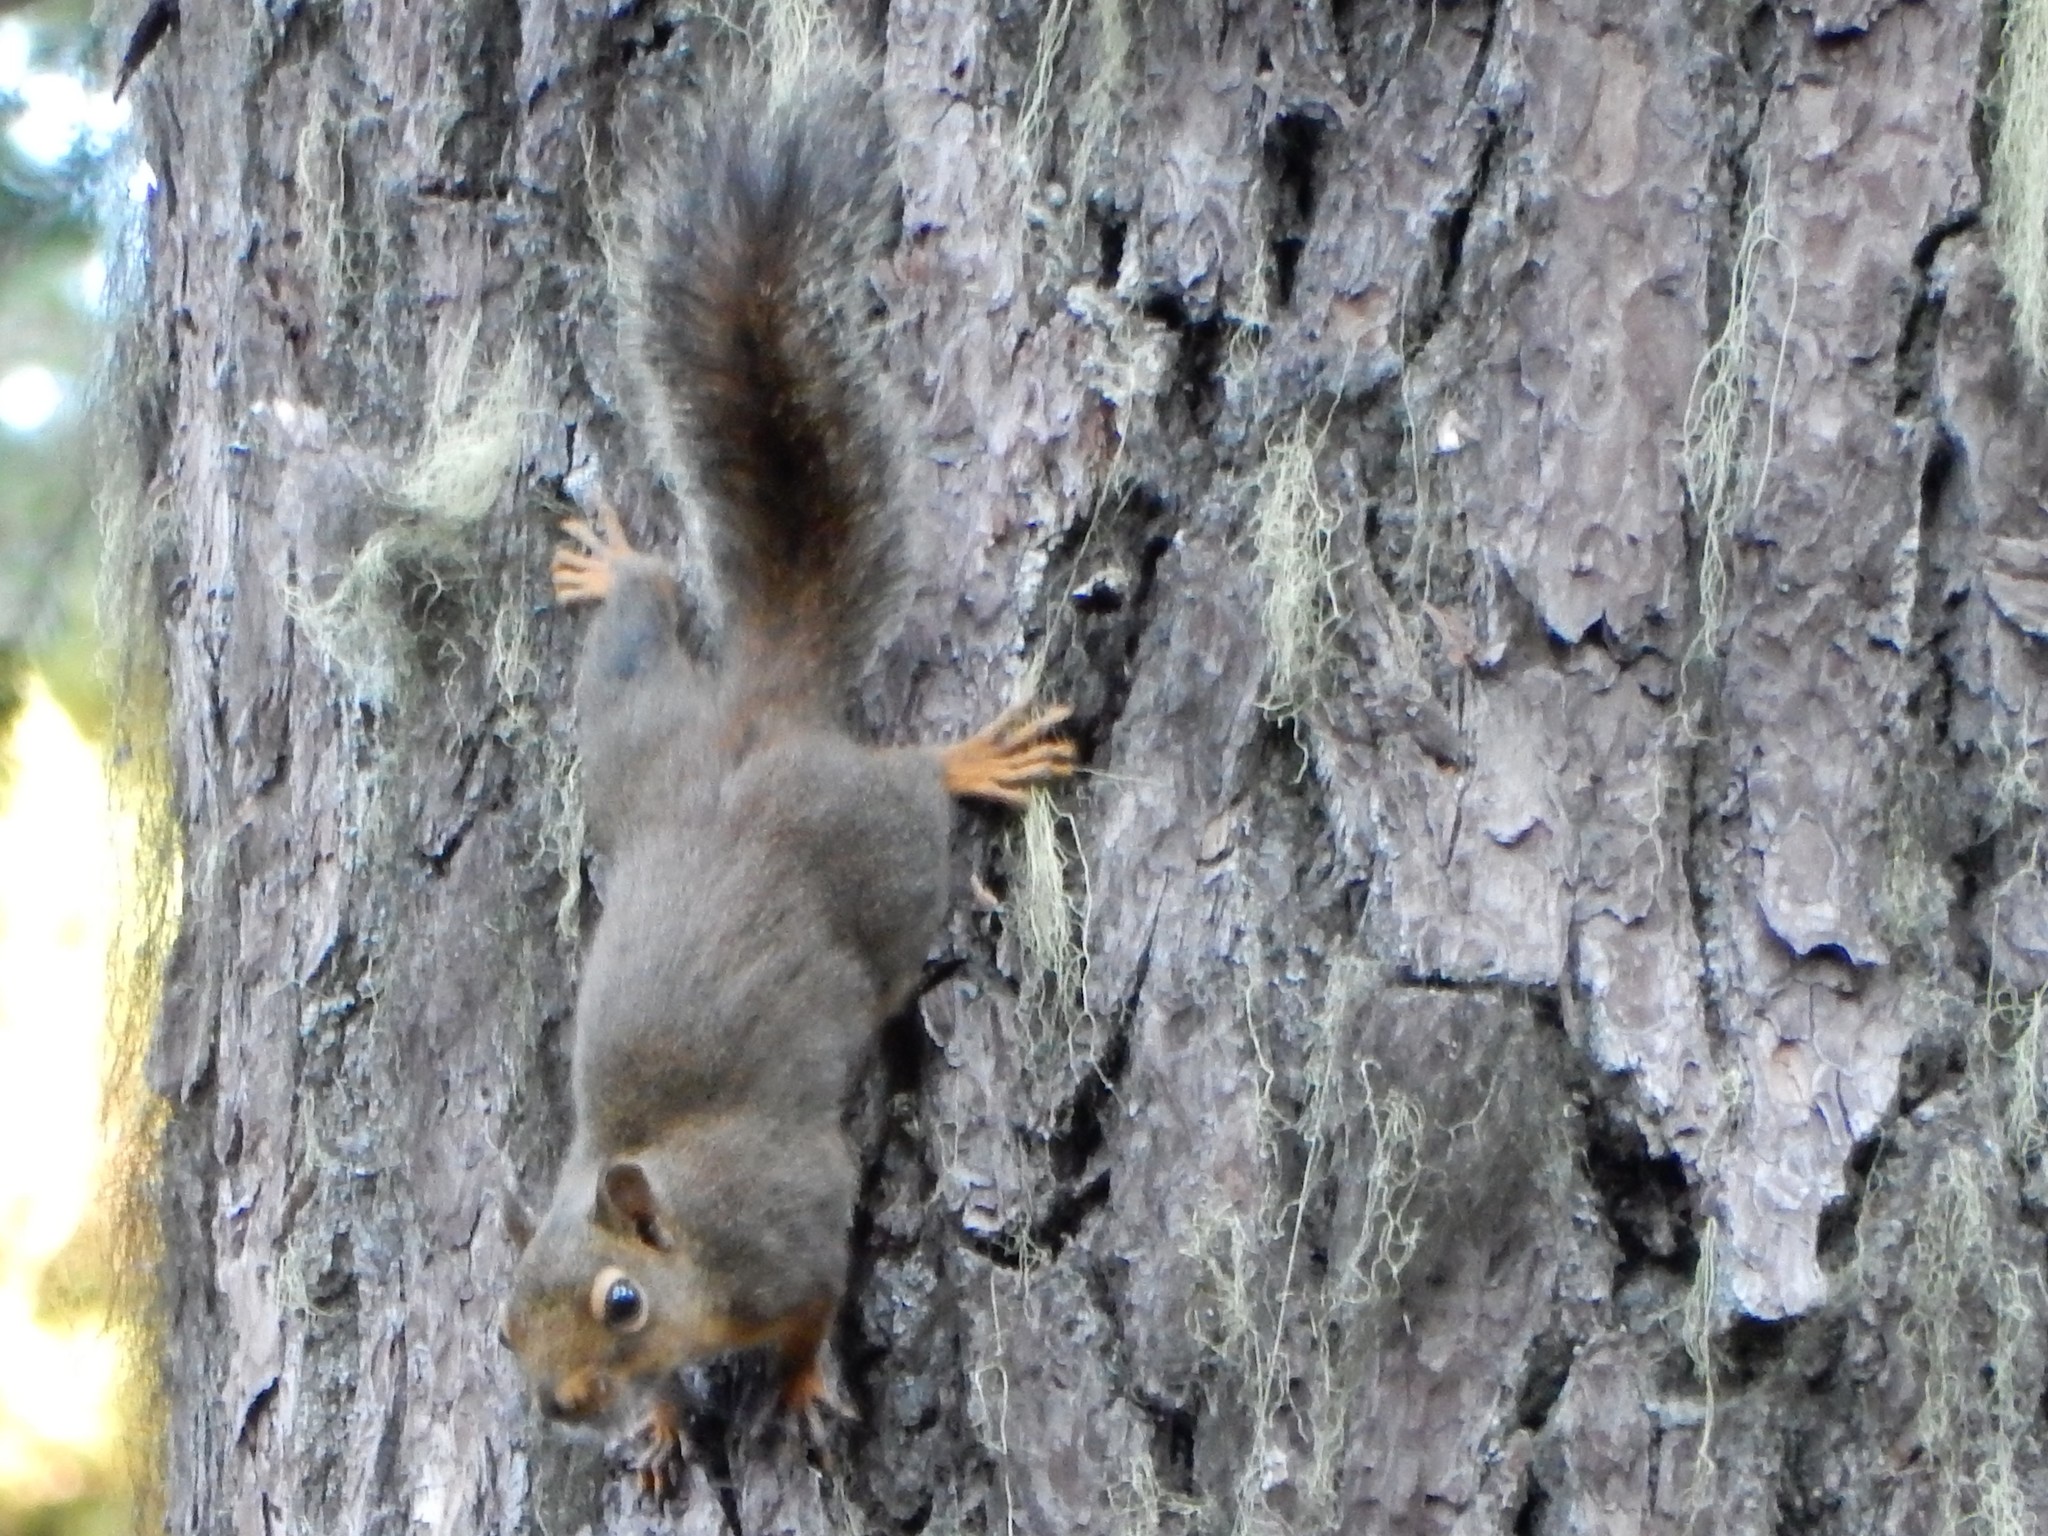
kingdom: Animalia
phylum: Chordata
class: Mammalia
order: Rodentia
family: Sciuridae
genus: Tamiasciurus
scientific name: Tamiasciurus douglasii
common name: Douglas's squirrel
